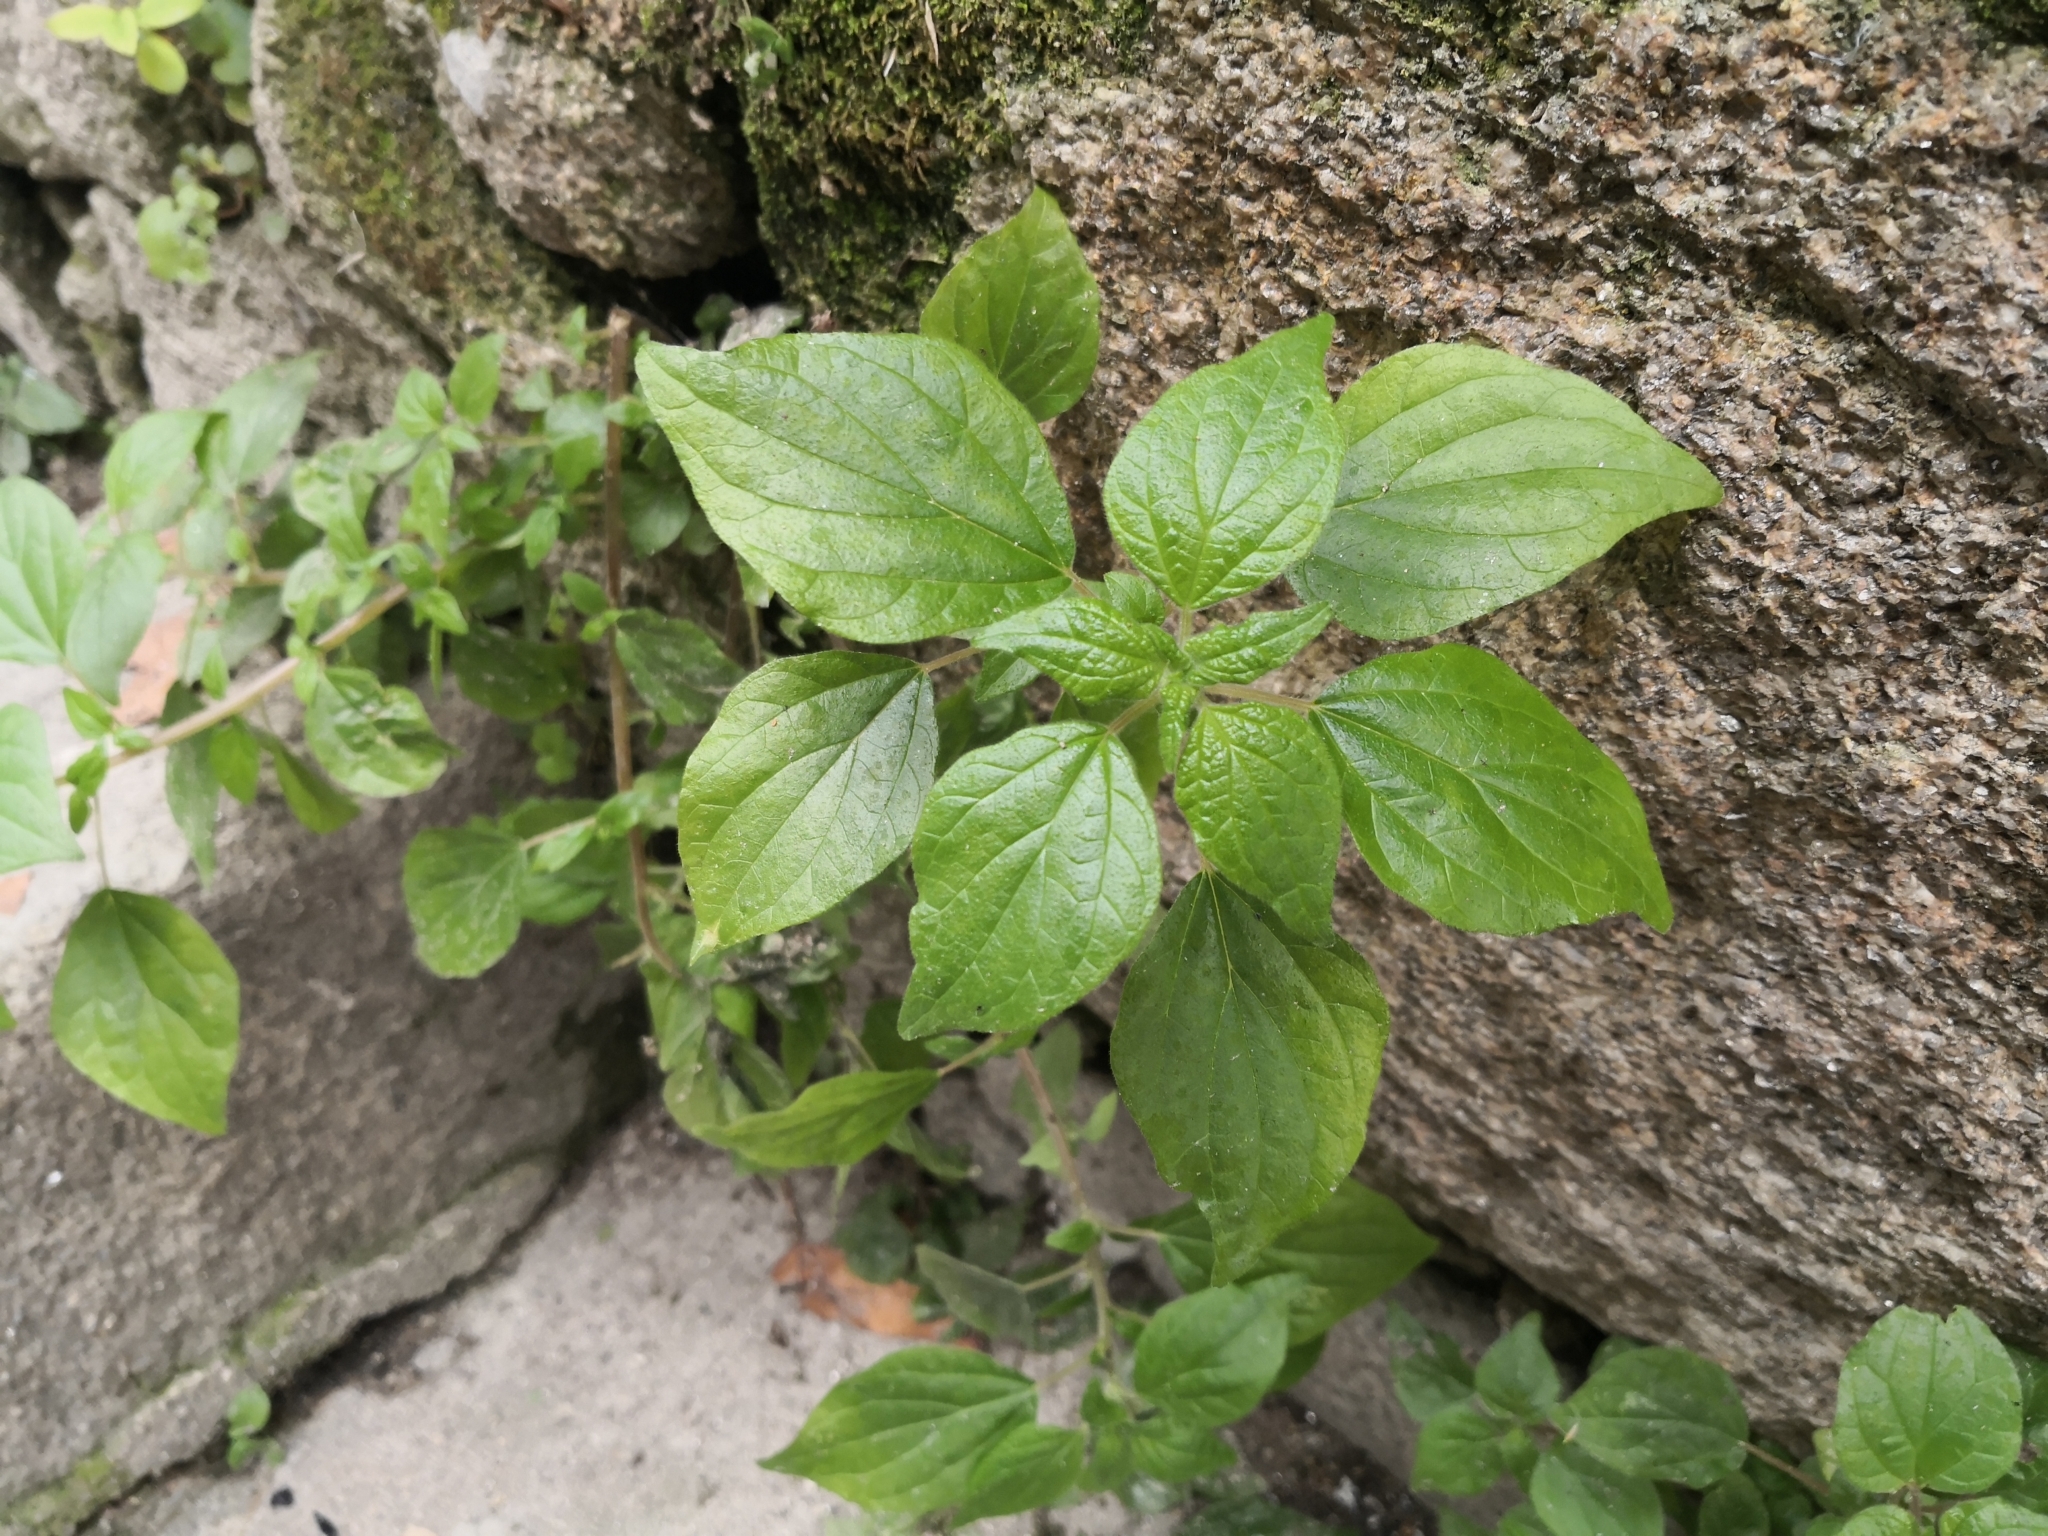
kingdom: Plantae
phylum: Tracheophyta
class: Magnoliopsida
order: Rosales
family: Urticaceae
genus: Parietaria
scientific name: Parietaria judaica
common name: Pellitory-of-the-wall
